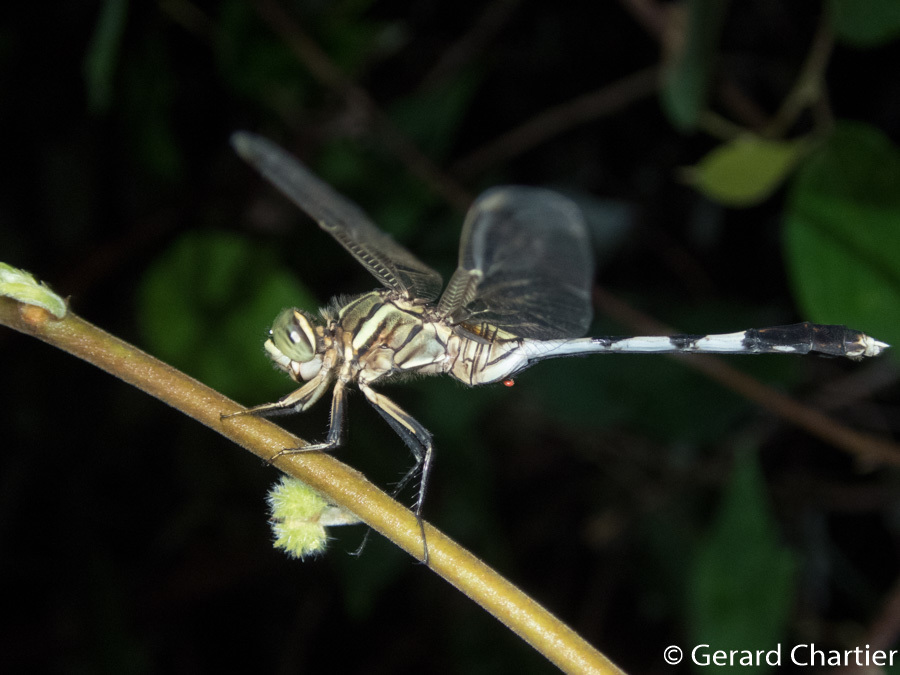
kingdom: Animalia
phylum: Arthropoda
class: Insecta
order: Odonata
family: Libellulidae
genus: Orthetrum
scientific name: Orthetrum sabina
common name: Slender skimmer
